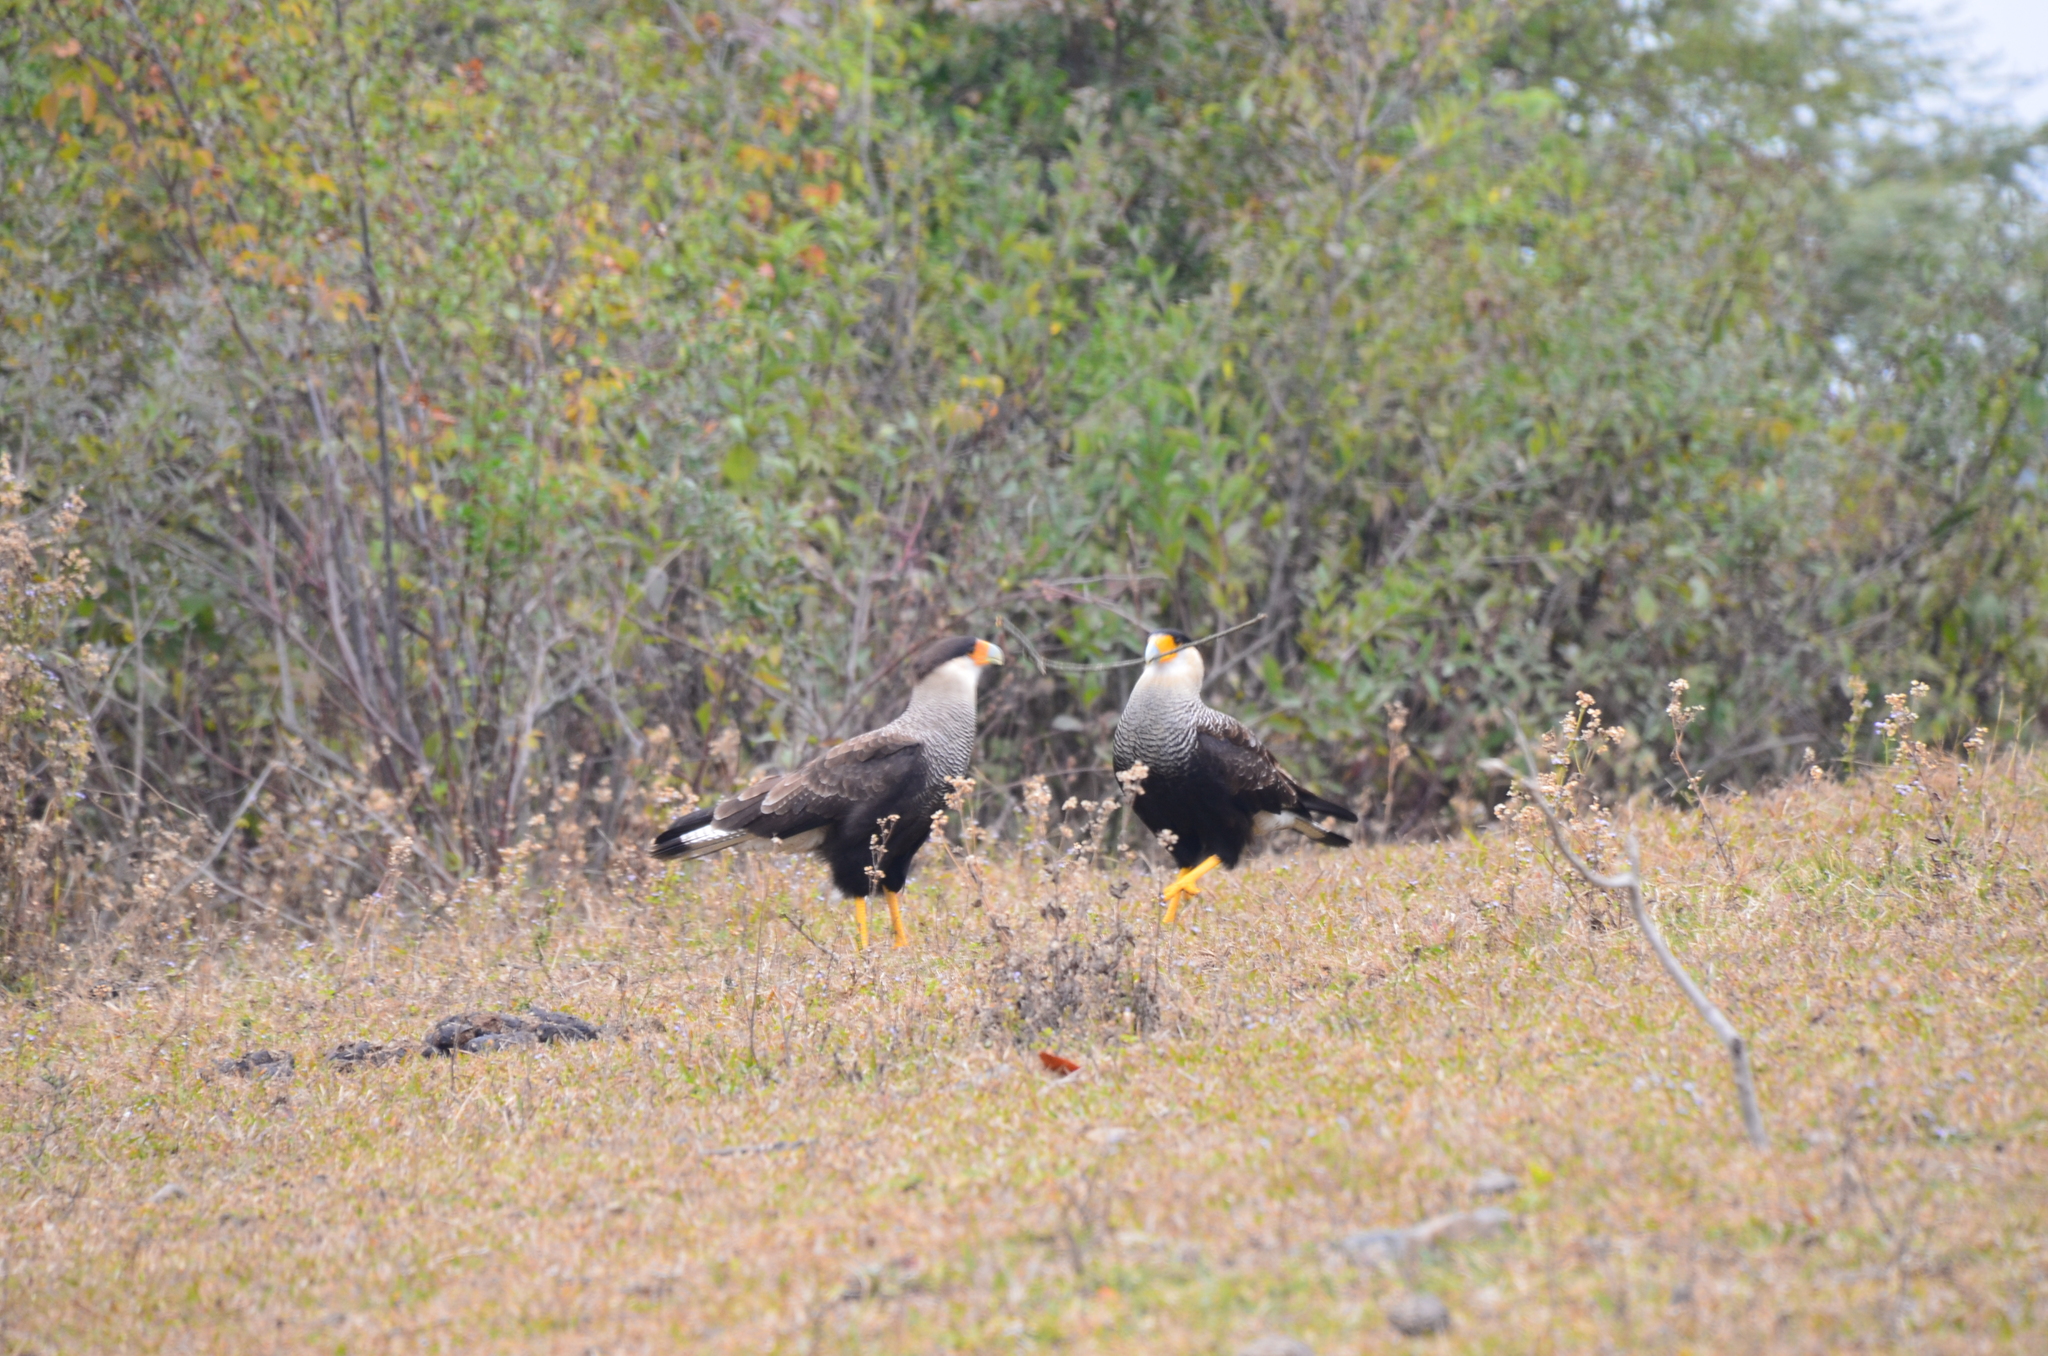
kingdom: Animalia
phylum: Chordata
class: Aves
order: Falconiformes
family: Falconidae
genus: Caracara
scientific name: Caracara plancus
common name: Southern caracara
